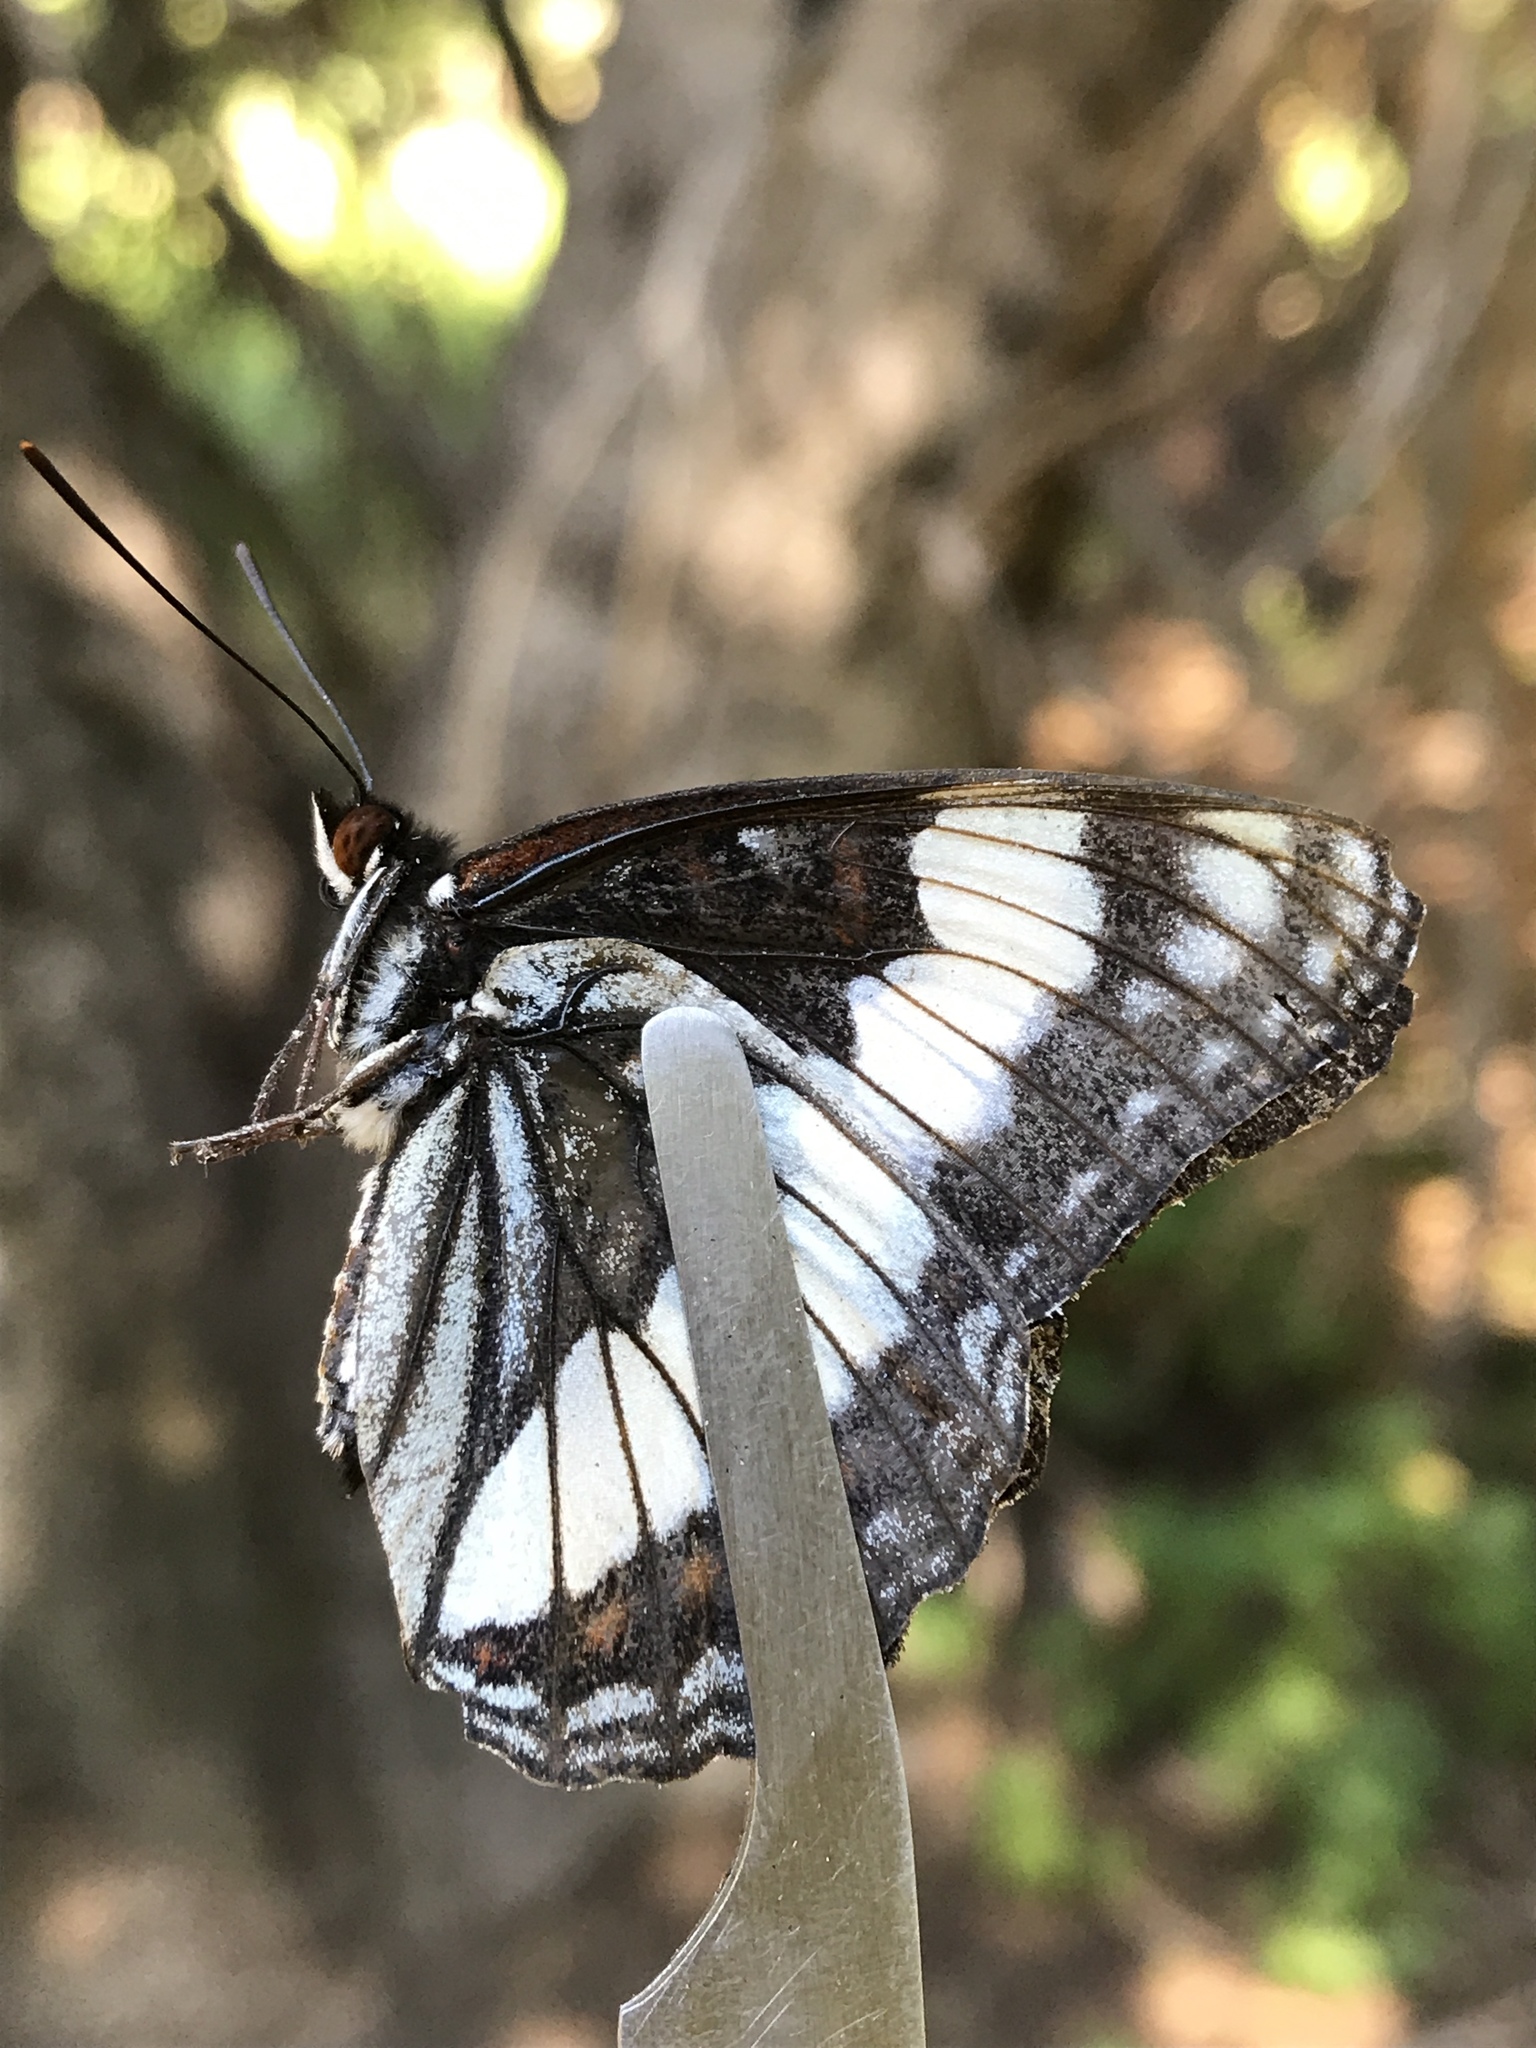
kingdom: Animalia
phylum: Arthropoda
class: Insecta
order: Lepidoptera
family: Nymphalidae
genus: Limenitis
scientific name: Limenitis weidemeyerii
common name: Weidemeyer's admiral
